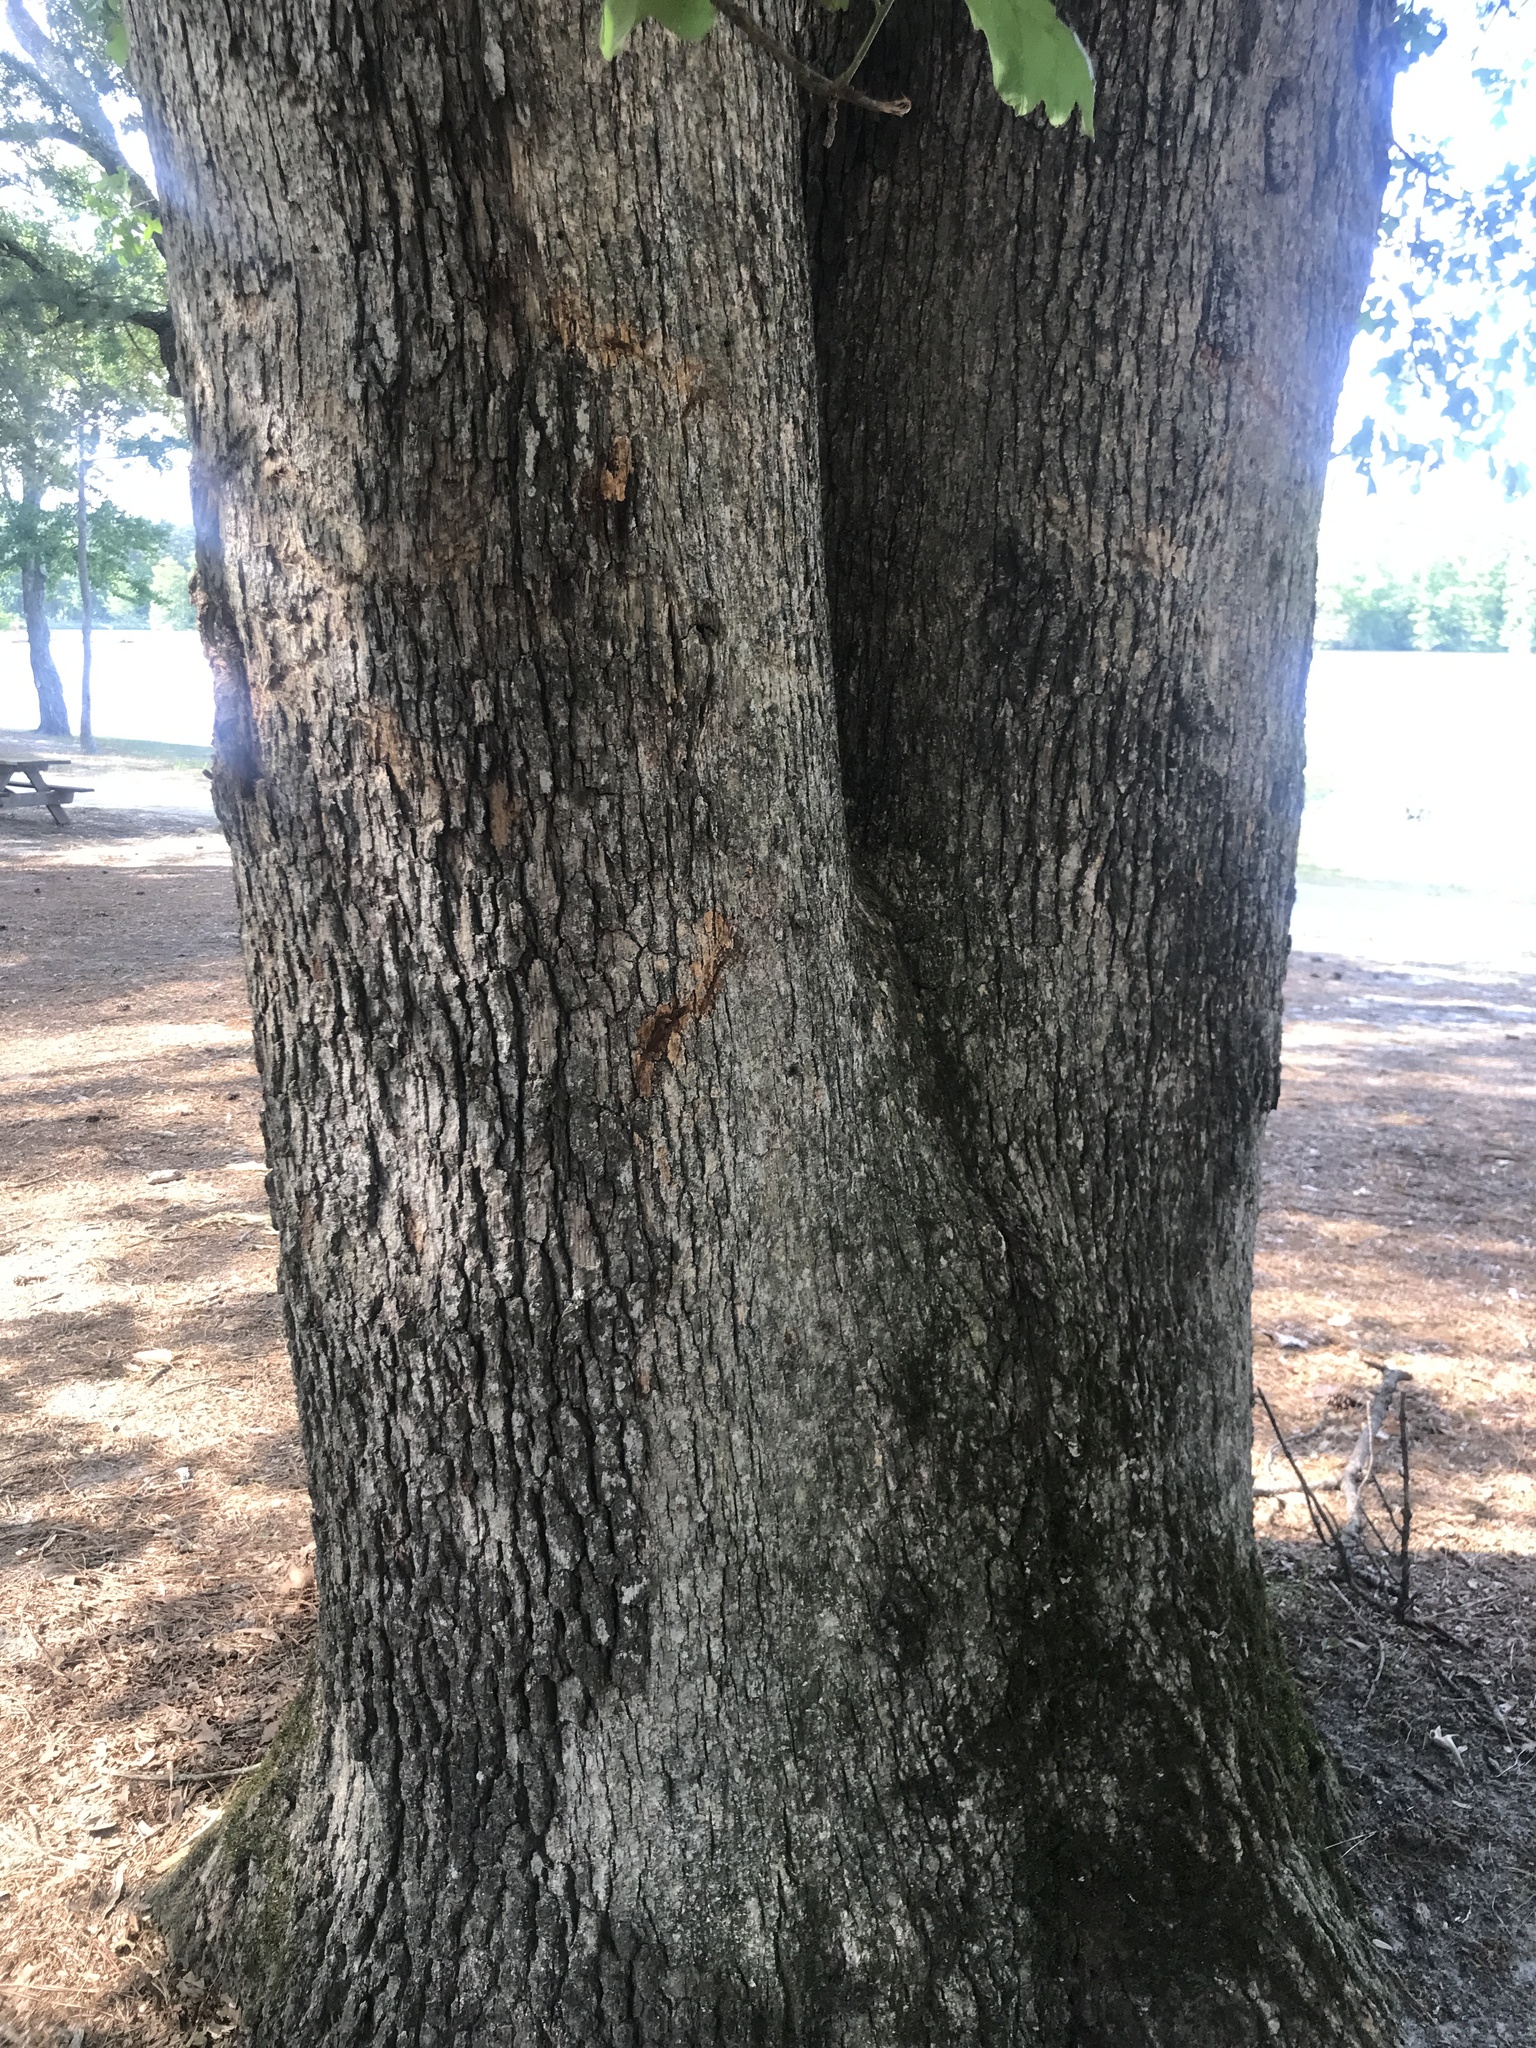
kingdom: Plantae
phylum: Tracheophyta
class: Magnoliopsida
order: Fagales
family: Fagaceae
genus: Quercus
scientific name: Quercus stellata
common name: Post oak
